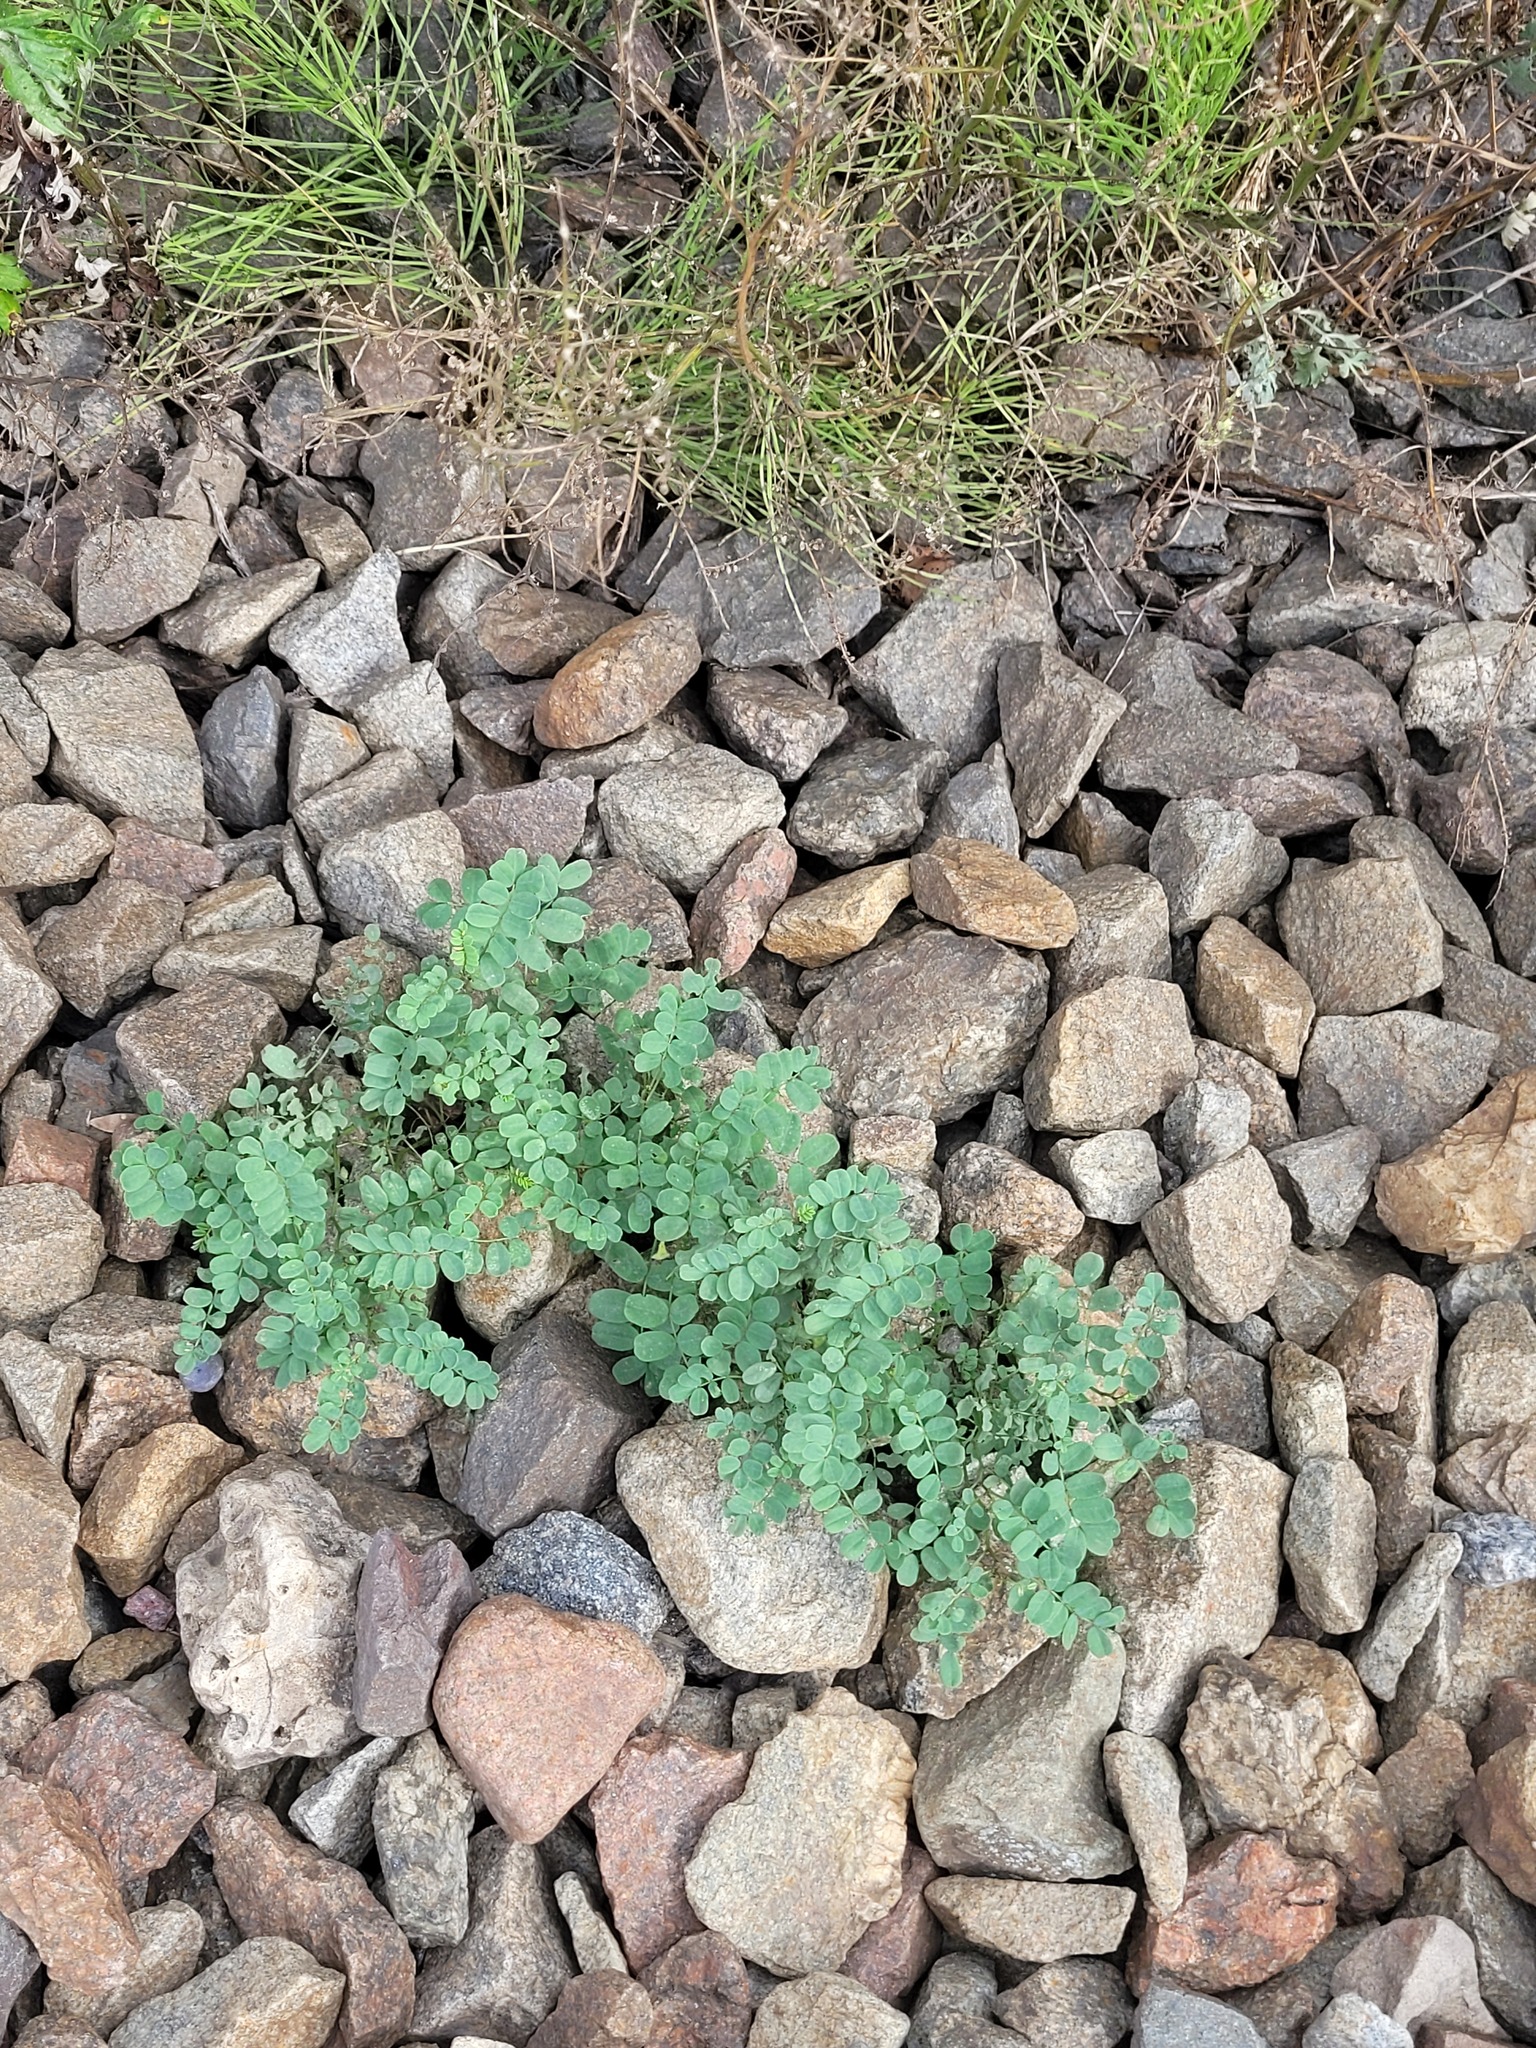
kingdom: Plantae
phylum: Tracheophyta
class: Magnoliopsida
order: Fabales
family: Fabaceae
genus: Coronilla
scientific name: Coronilla varia
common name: Crownvetch
